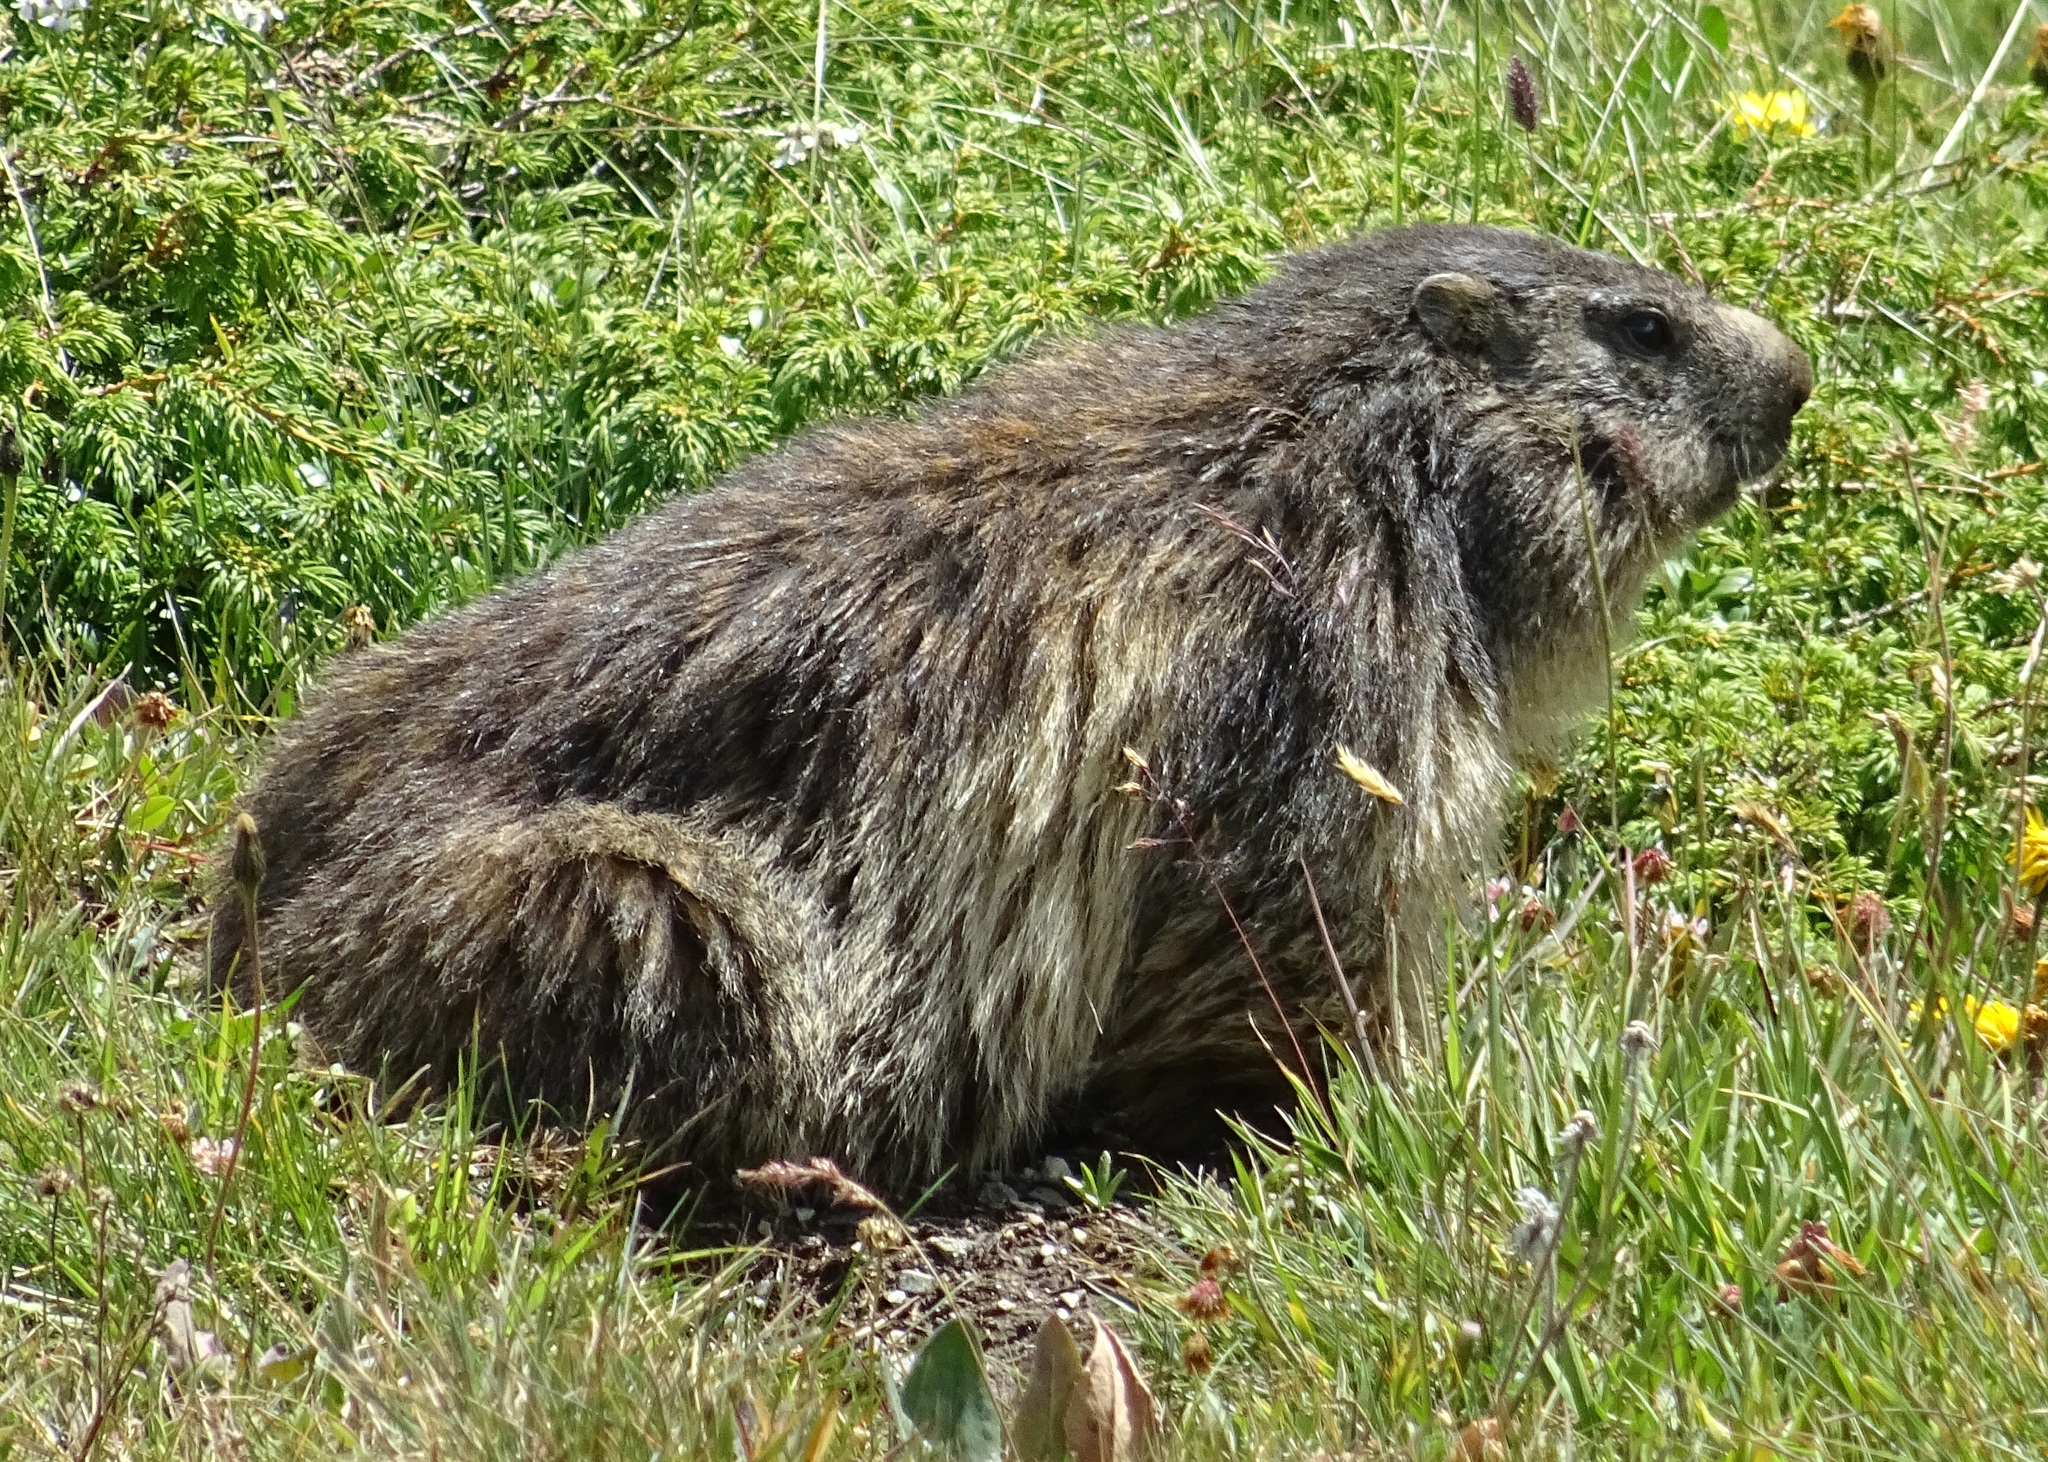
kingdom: Animalia
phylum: Chordata
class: Mammalia
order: Rodentia
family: Sciuridae
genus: Marmota
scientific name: Marmota marmota
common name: Alpine marmot
